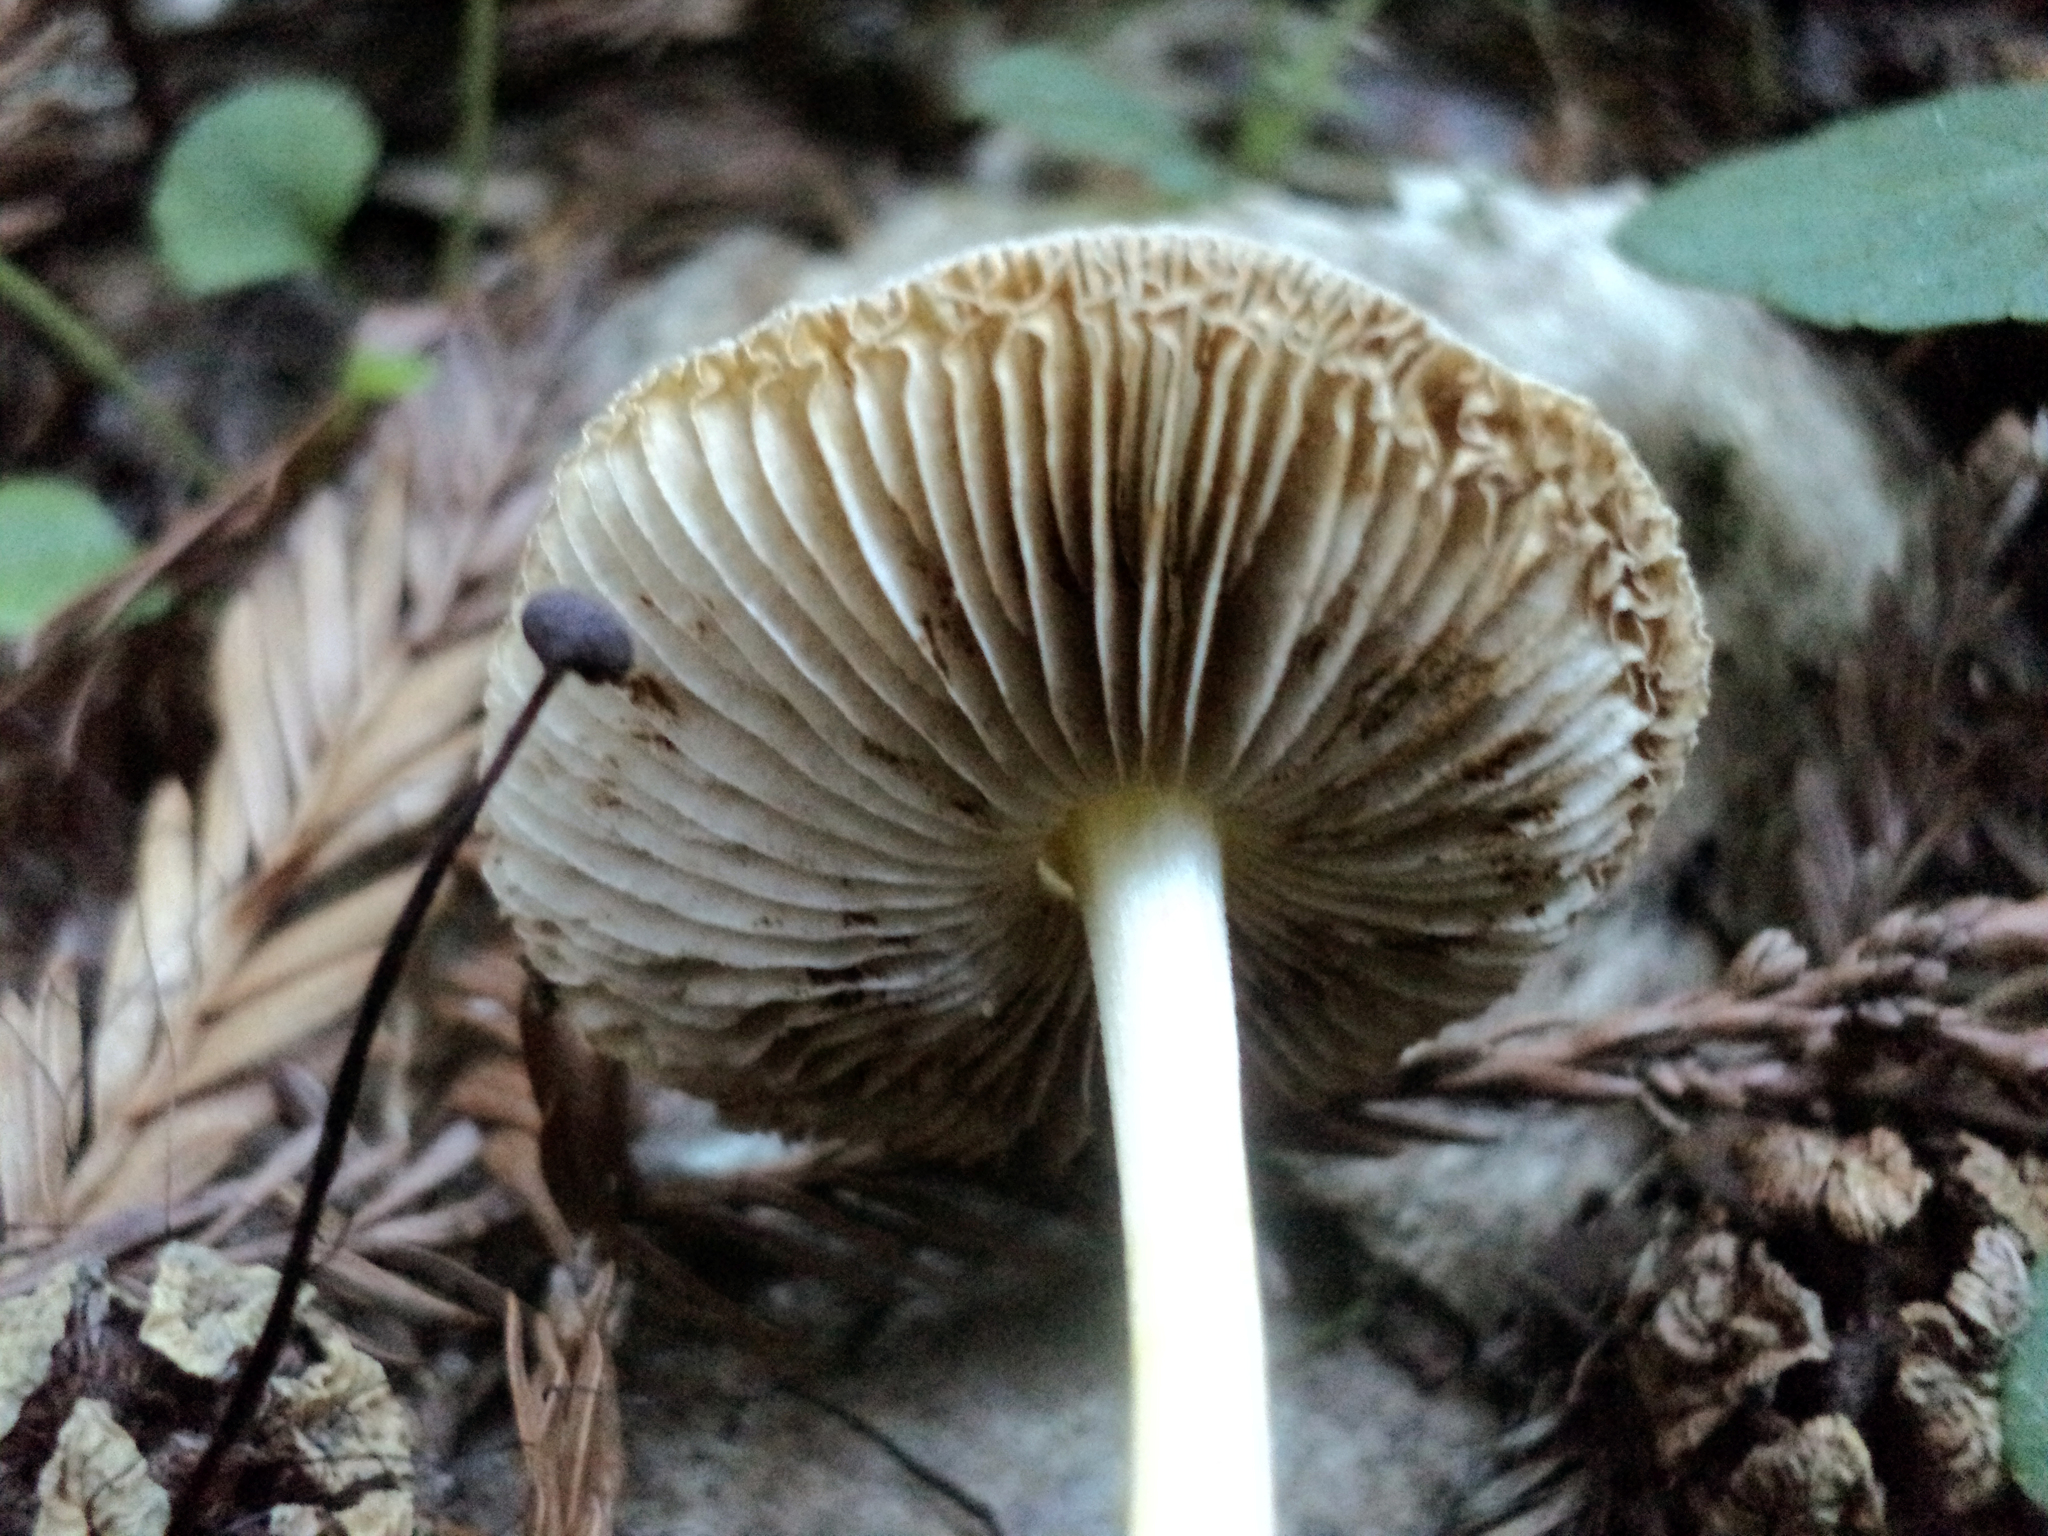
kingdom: Fungi
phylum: Basidiomycota
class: Agaricomycetes
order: Agaricales
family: Bolbitiaceae
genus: Bolbitius
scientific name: Bolbitius reticulatus
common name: Netted fieldcap
